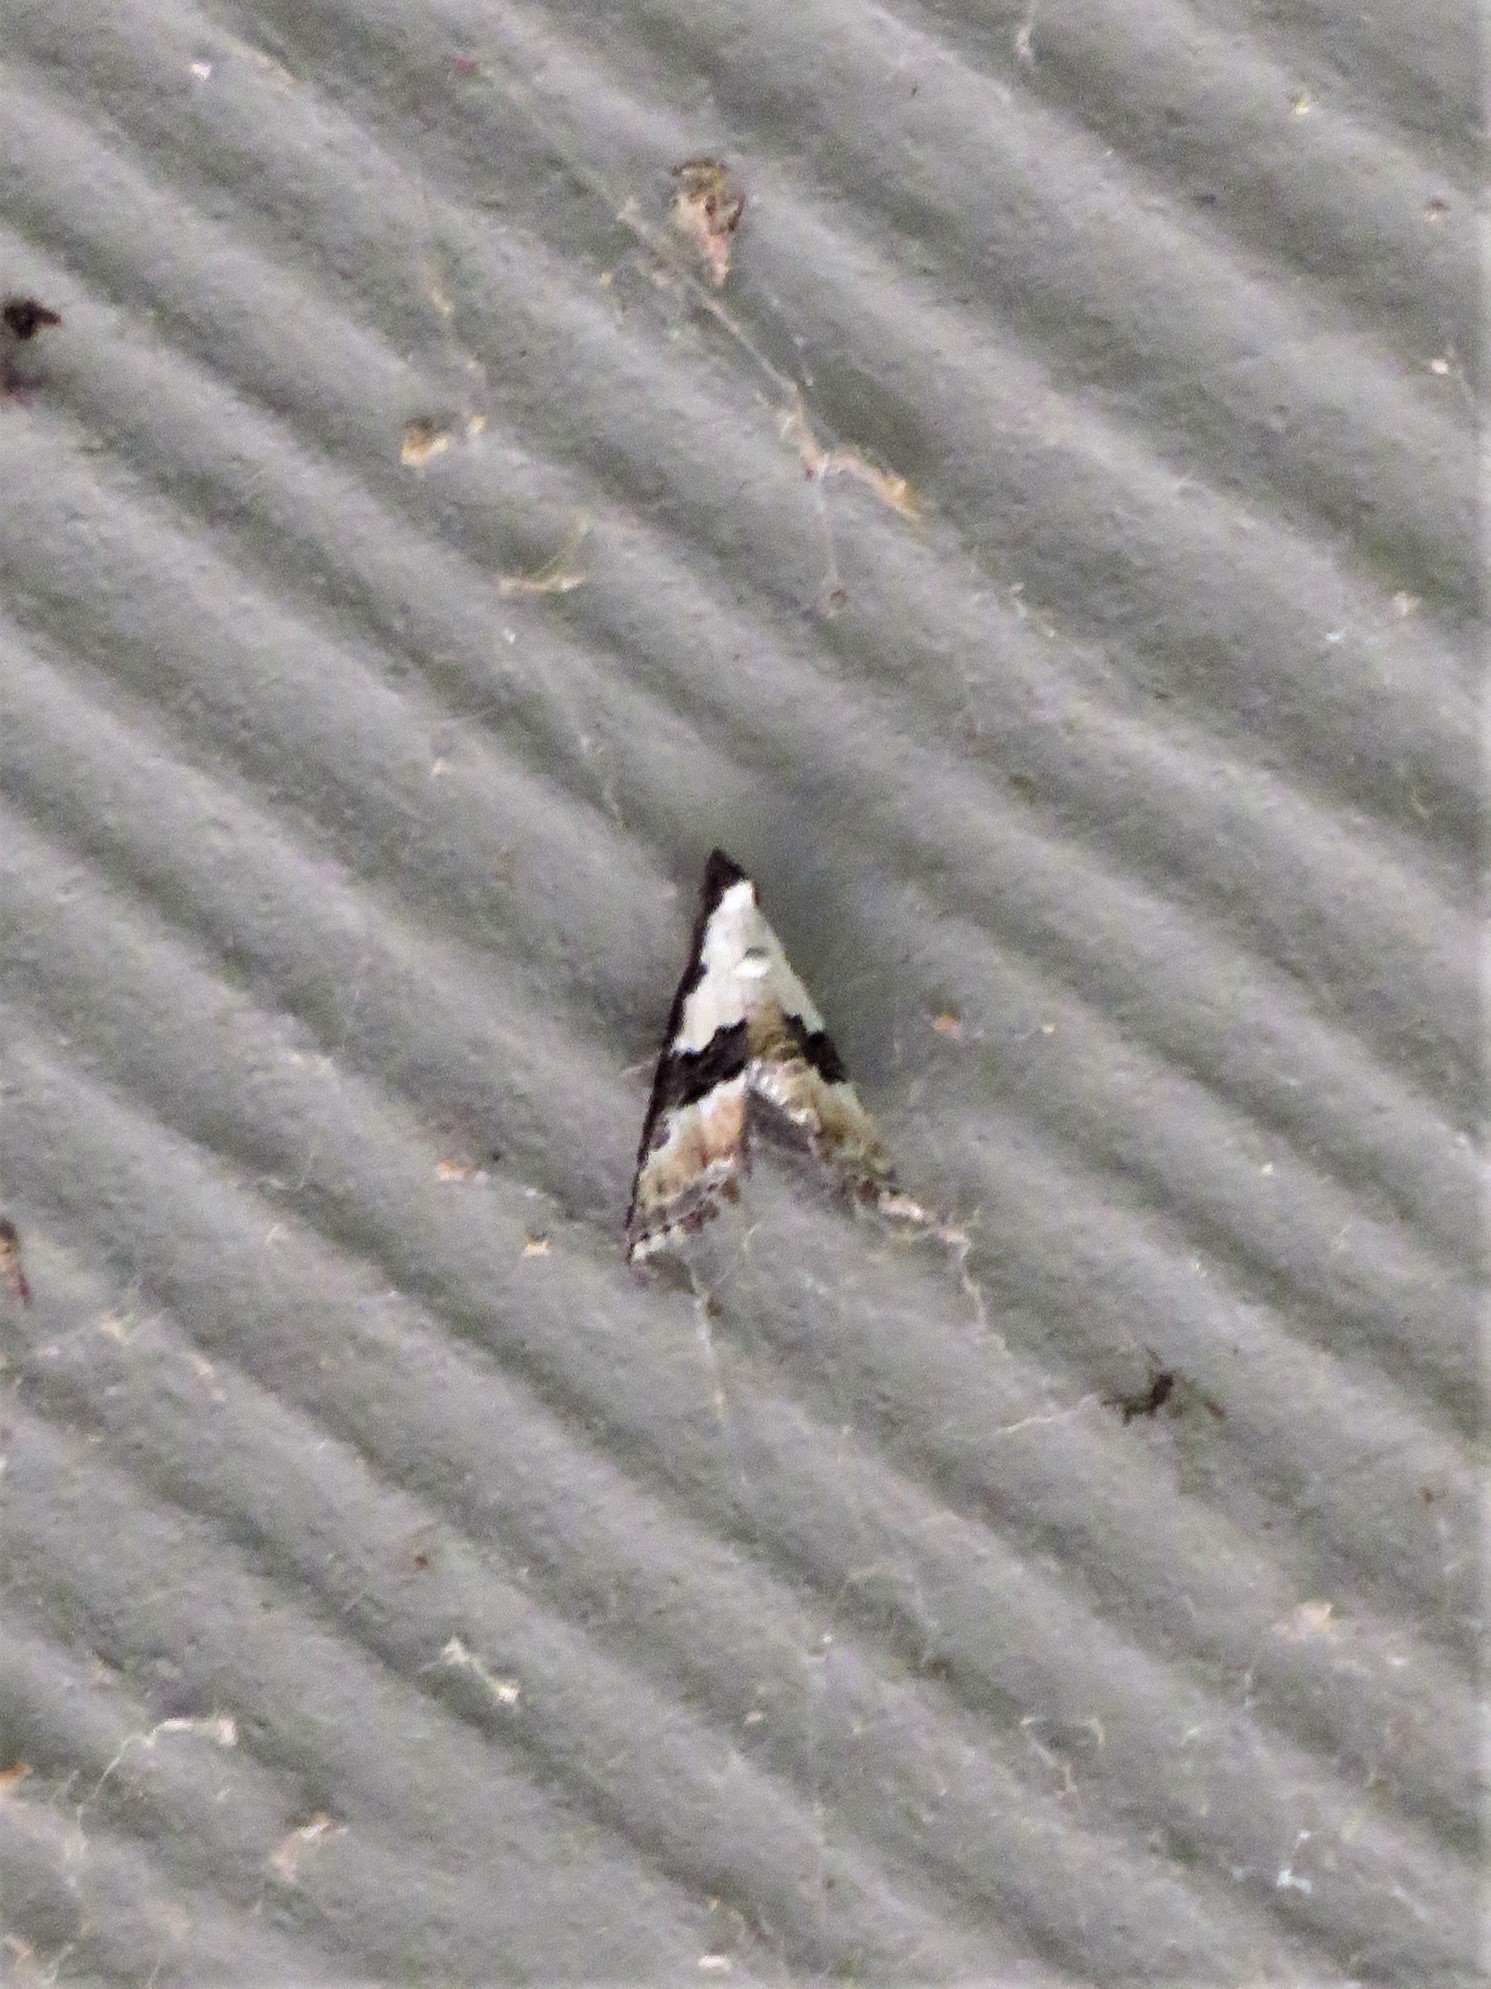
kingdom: Animalia
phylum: Arthropoda
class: Insecta
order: Lepidoptera
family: Noctuidae
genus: Nigetia
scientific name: Nigetia formosalis
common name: Thin-winged owlet
